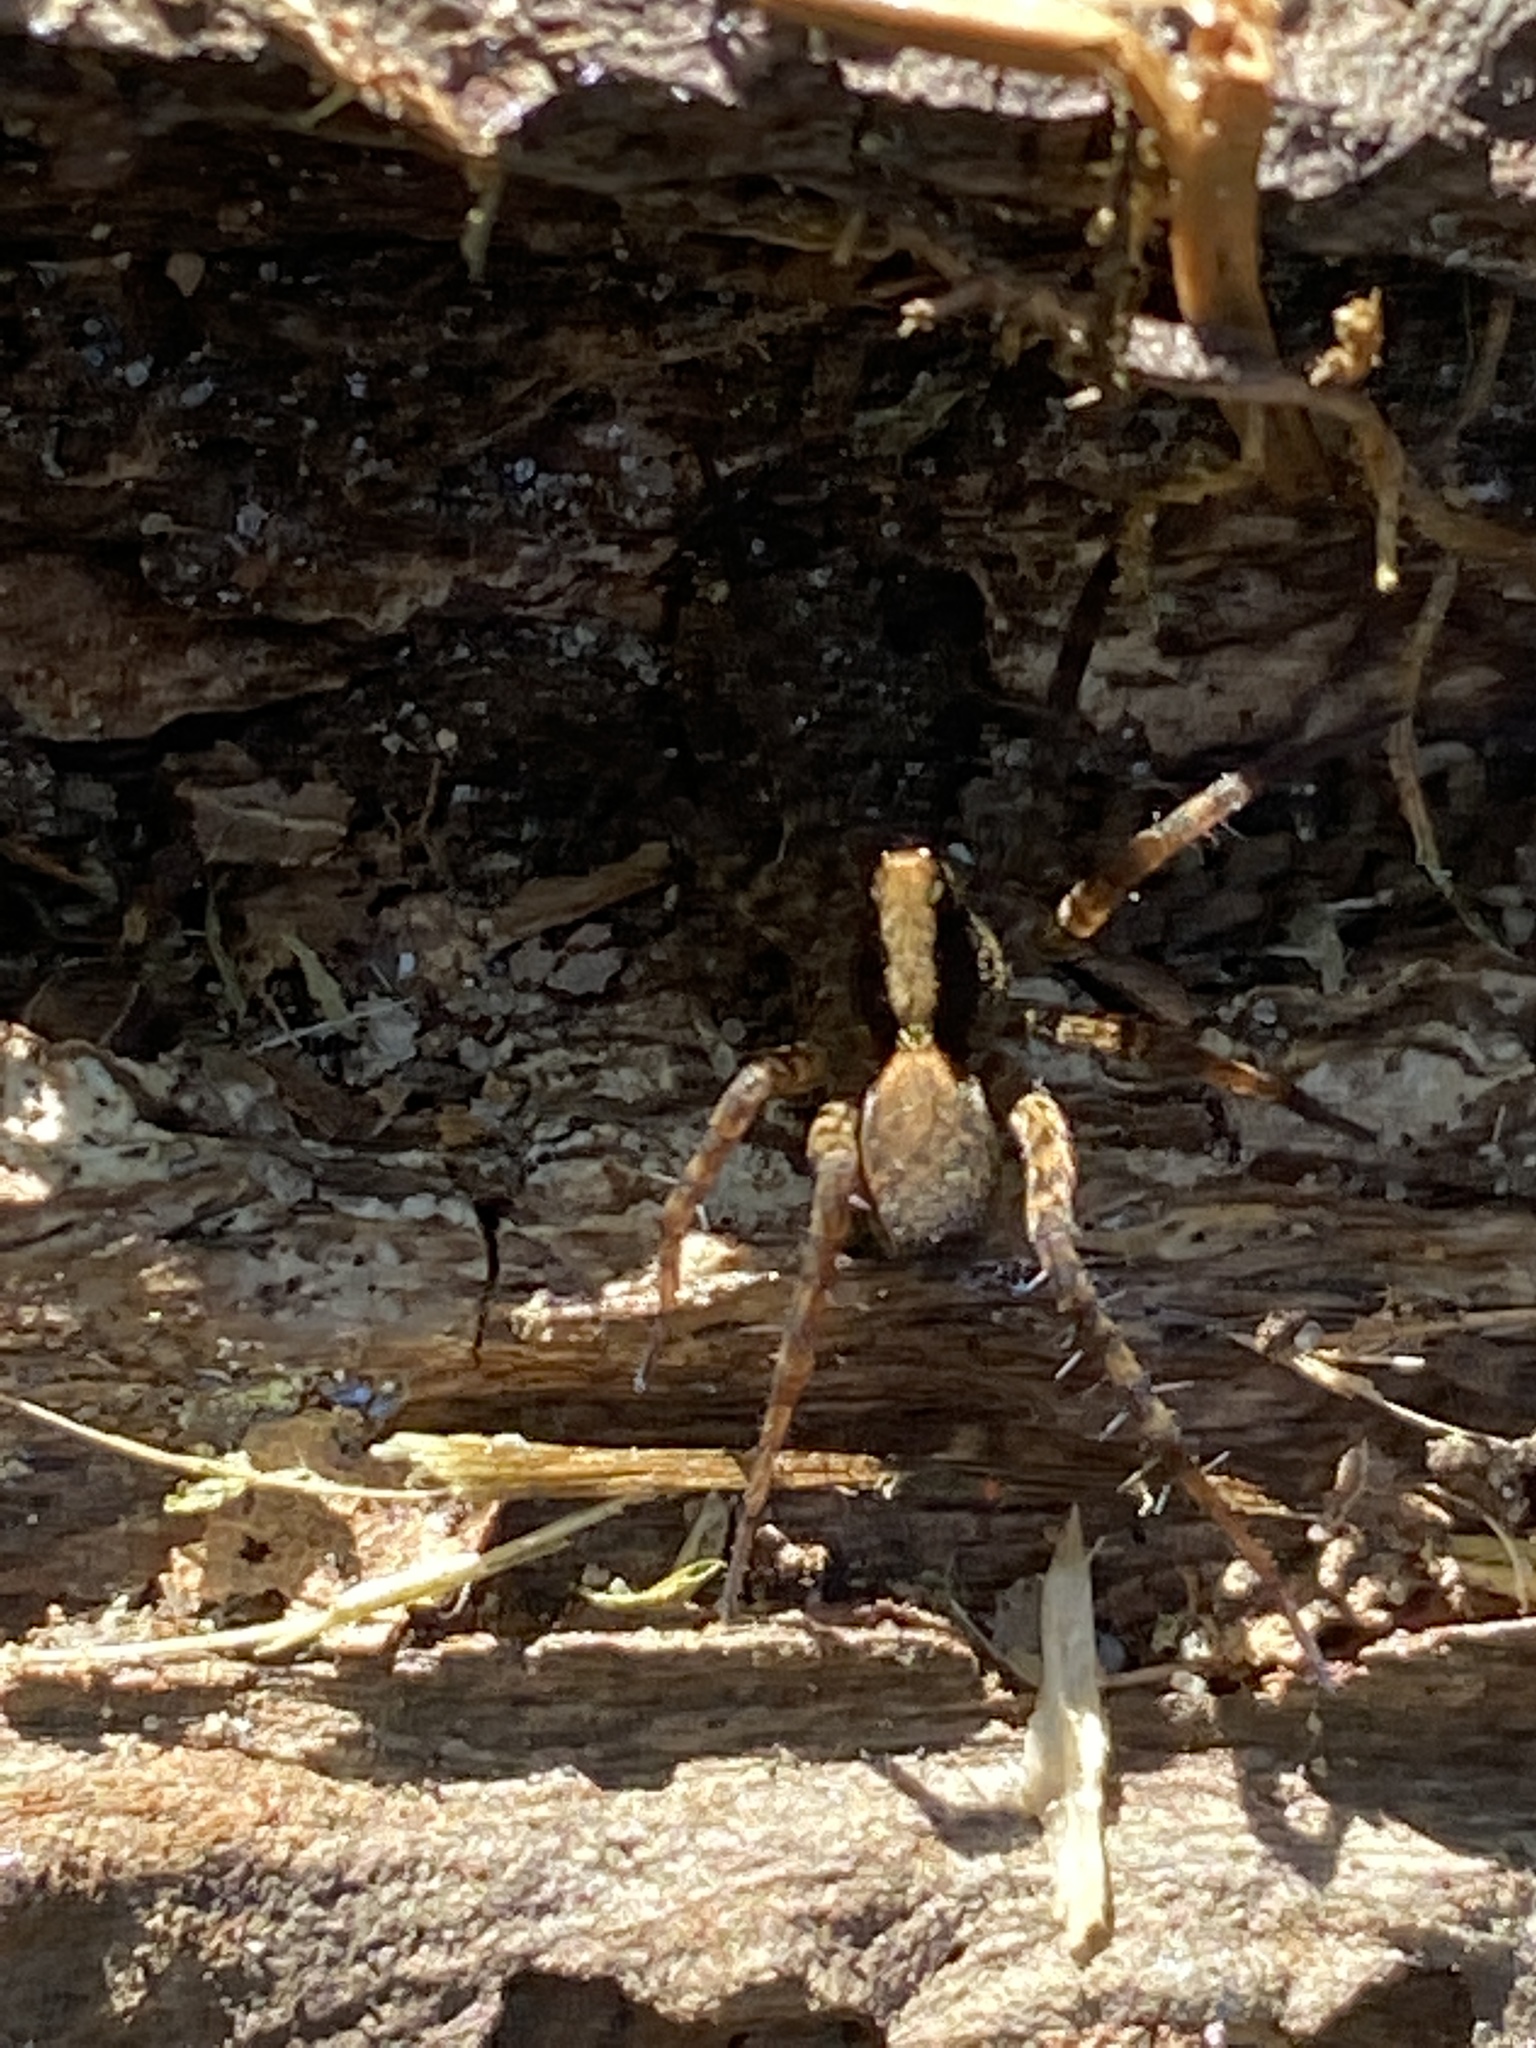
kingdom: Animalia
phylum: Arthropoda
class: Arachnida
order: Araneae
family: Lycosidae
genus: Pardosa
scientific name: Pardosa
